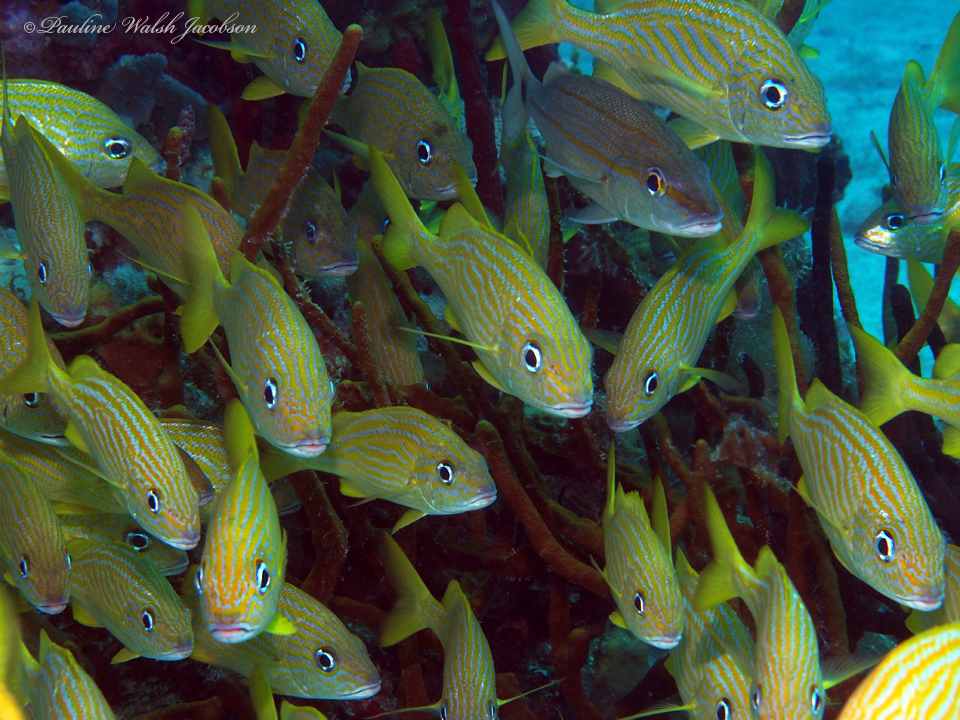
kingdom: Animalia
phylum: Chordata
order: Perciformes
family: Haemulidae
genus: Haemulon
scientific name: Haemulon flavolineatum
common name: French grunt
